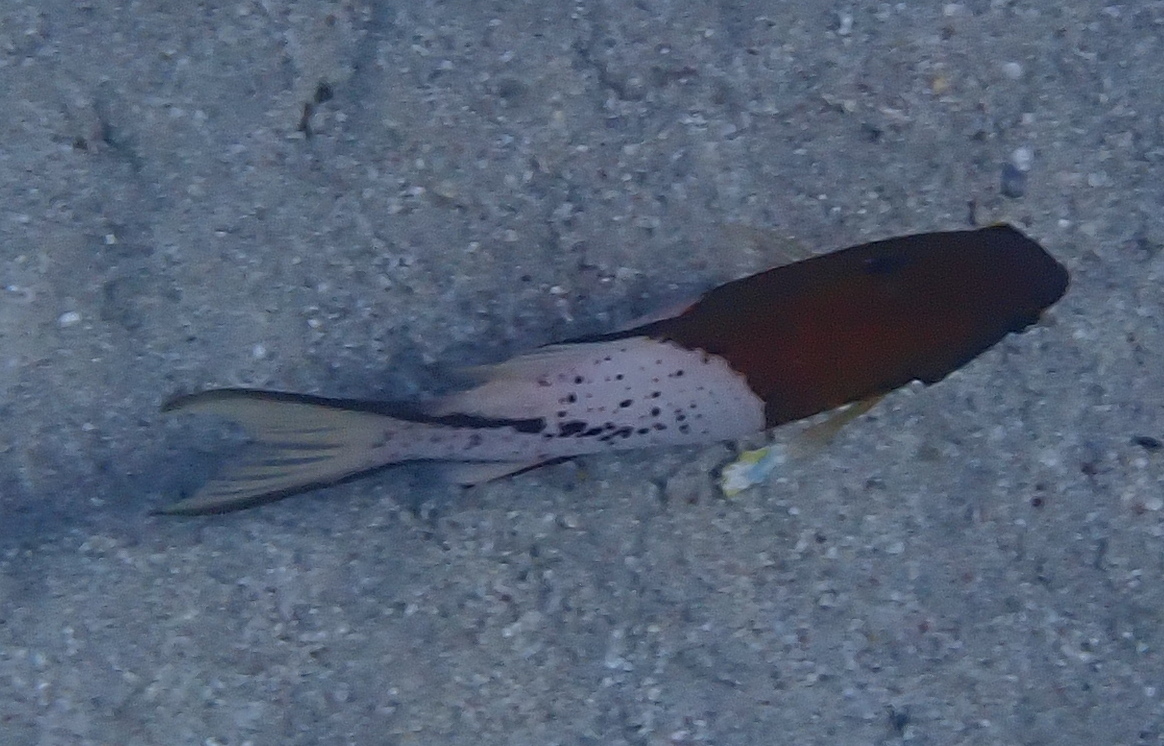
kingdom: Animalia
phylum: Chordata
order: Perciformes
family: Labridae
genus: Bodianus
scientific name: Bodianus anthioides
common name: Lyretail hogfish
